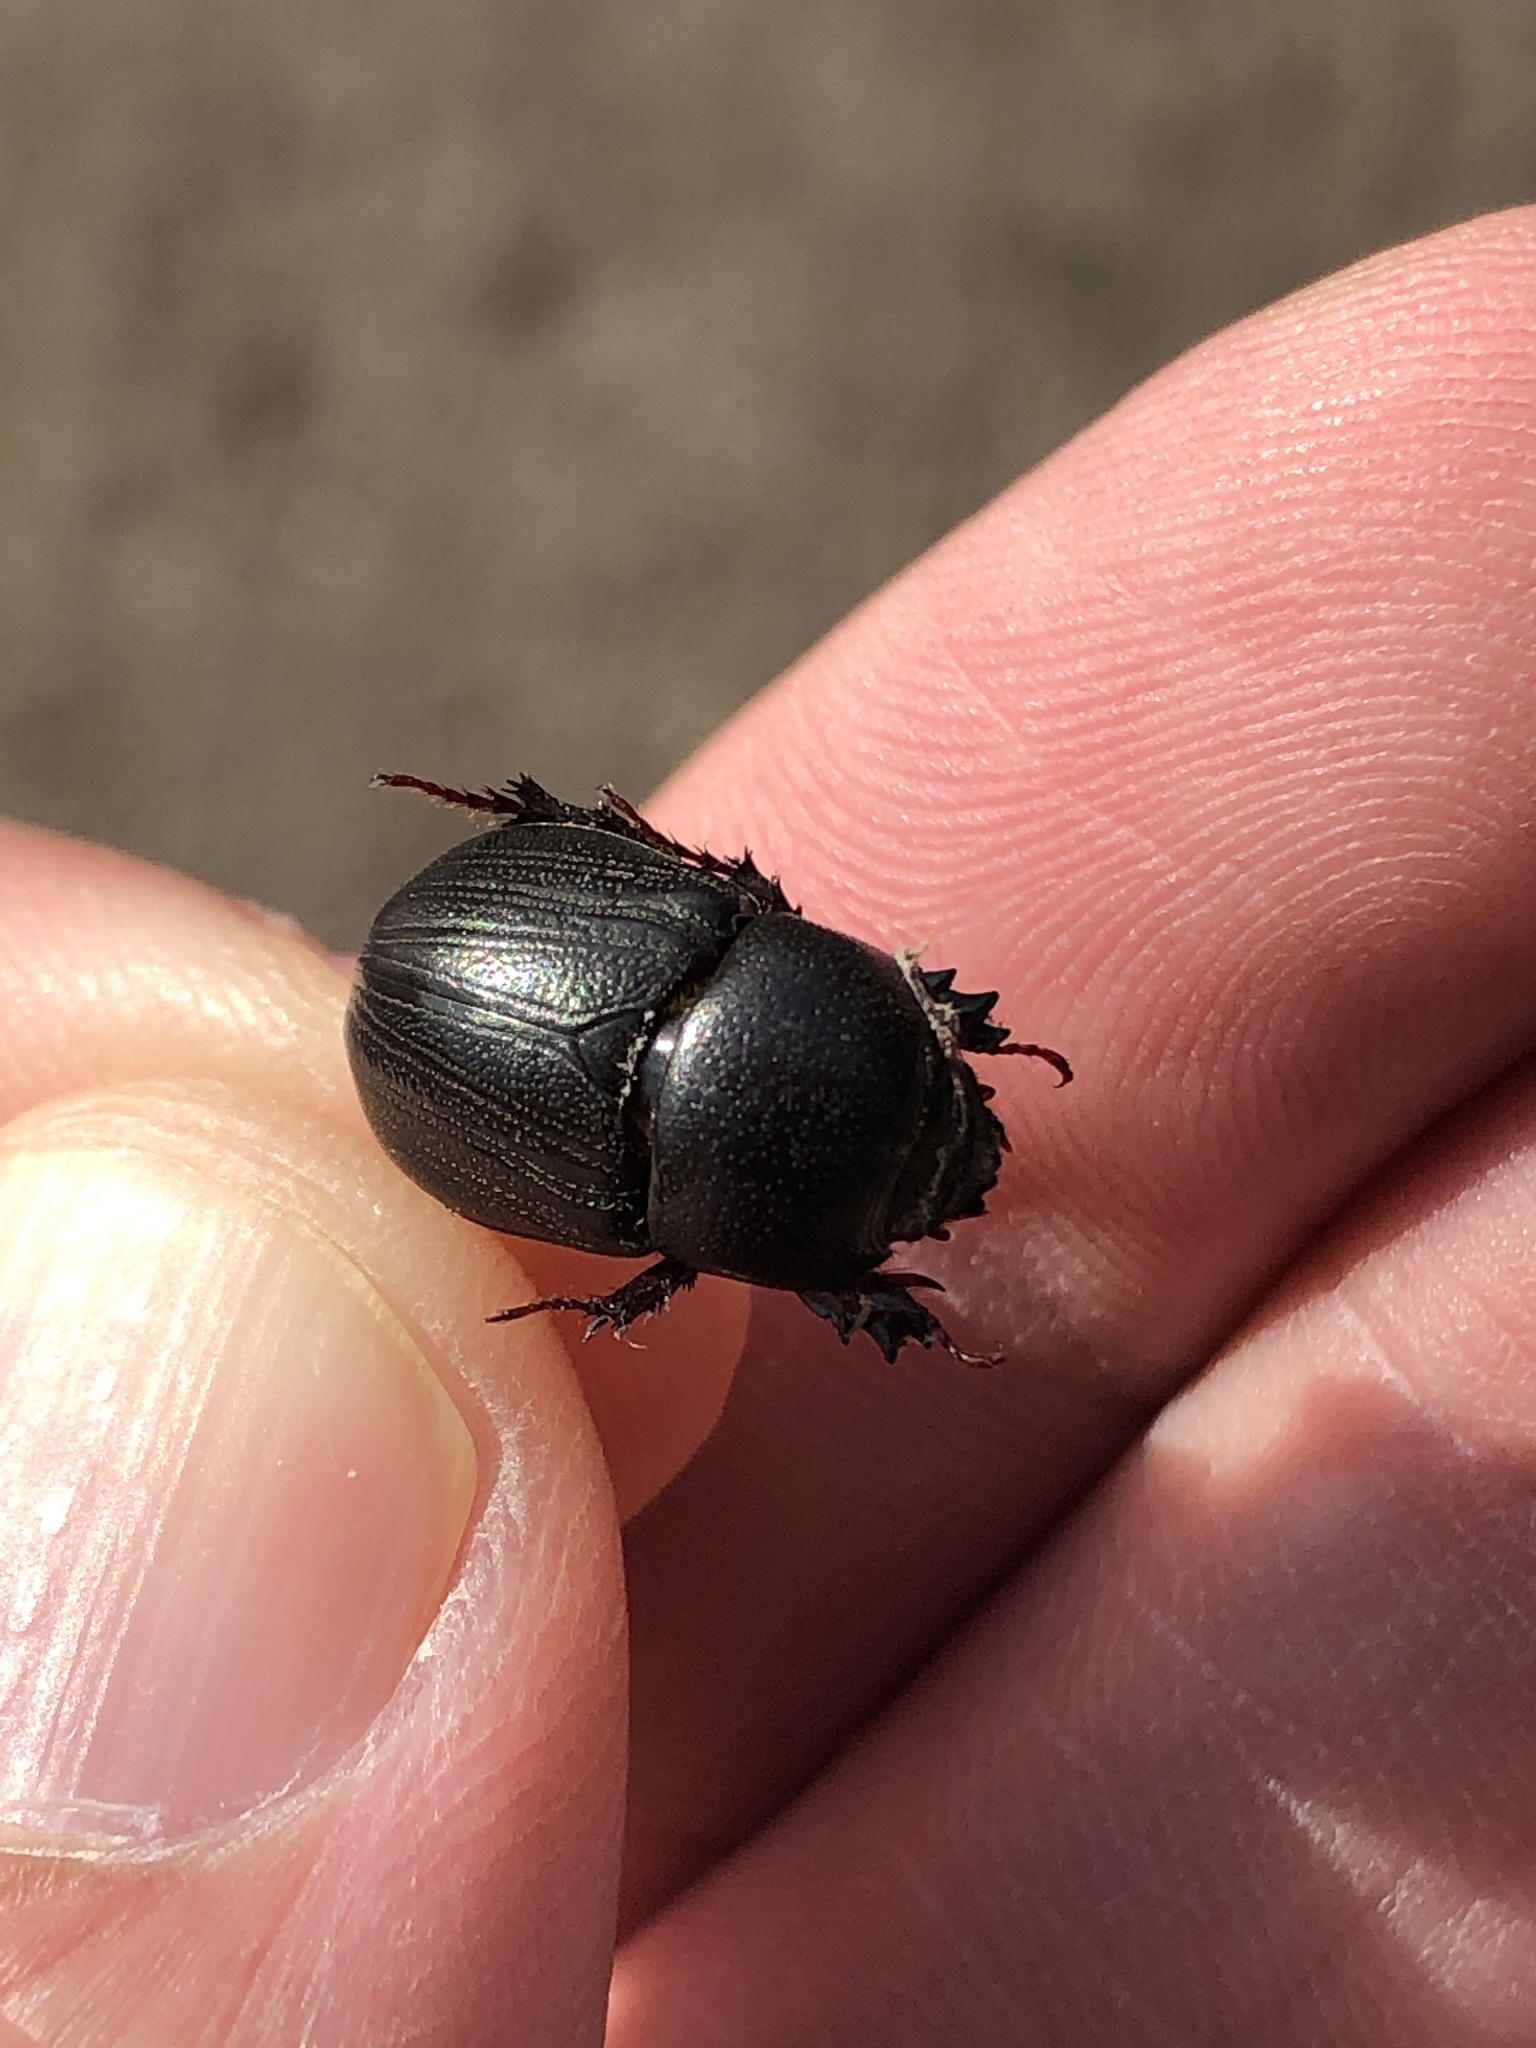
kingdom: Animalia
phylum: Arthropoda
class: Insecta
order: Coleoptera
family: Scarabaeidae
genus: Euetheola
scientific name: Euetheola humilis
